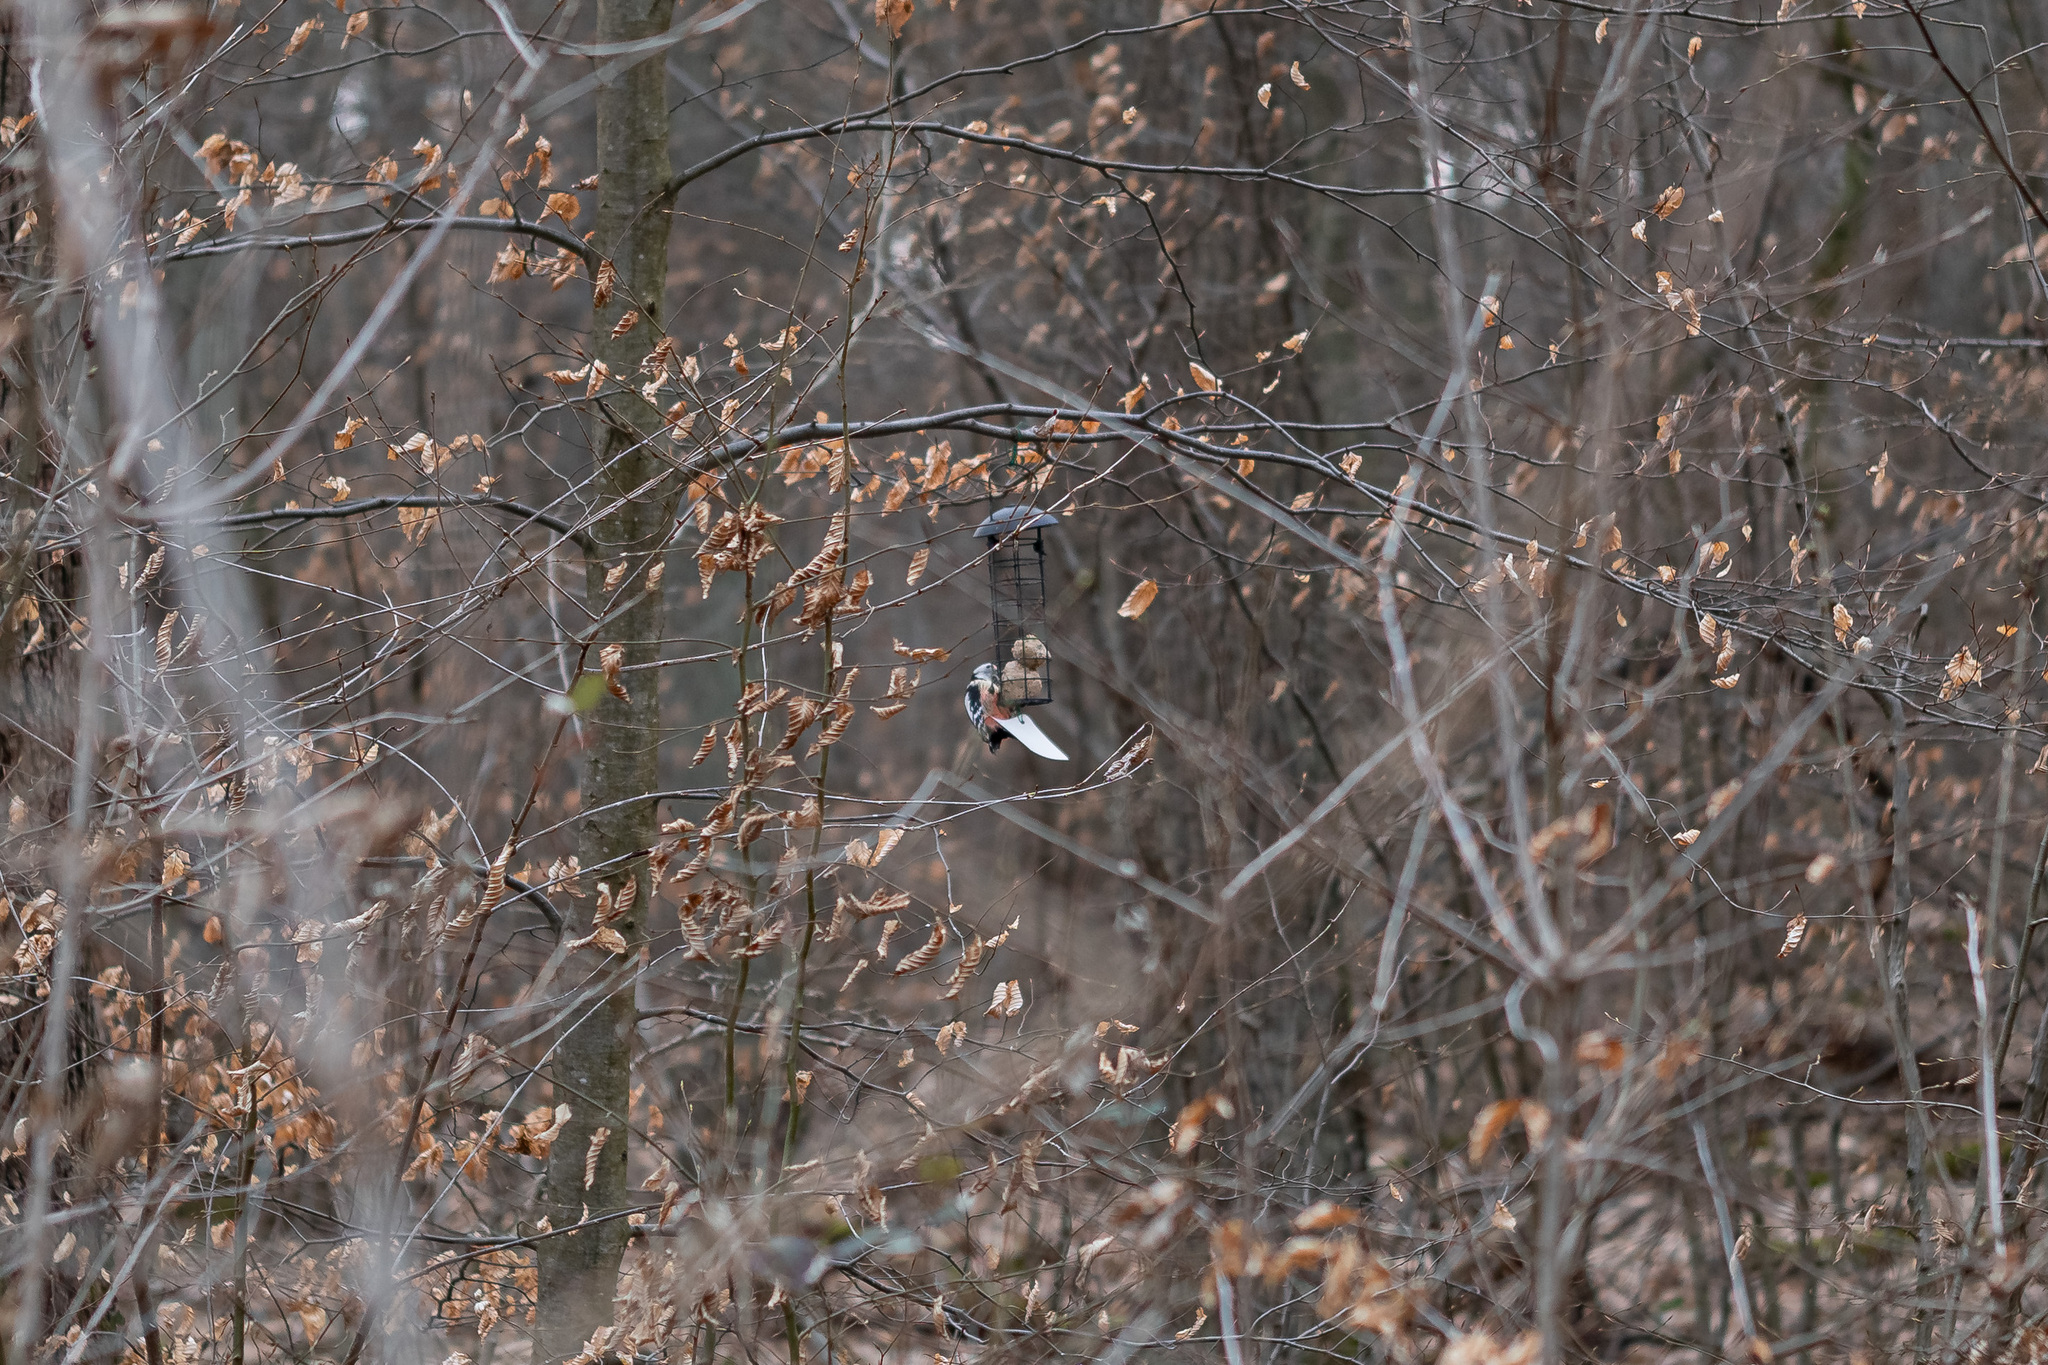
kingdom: Animalia
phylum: Chordata
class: Aves
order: Piciformes
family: Picidae
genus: Dendrocoptes
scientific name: Dendrocoptes medius
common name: Middle spotted woodpecker
